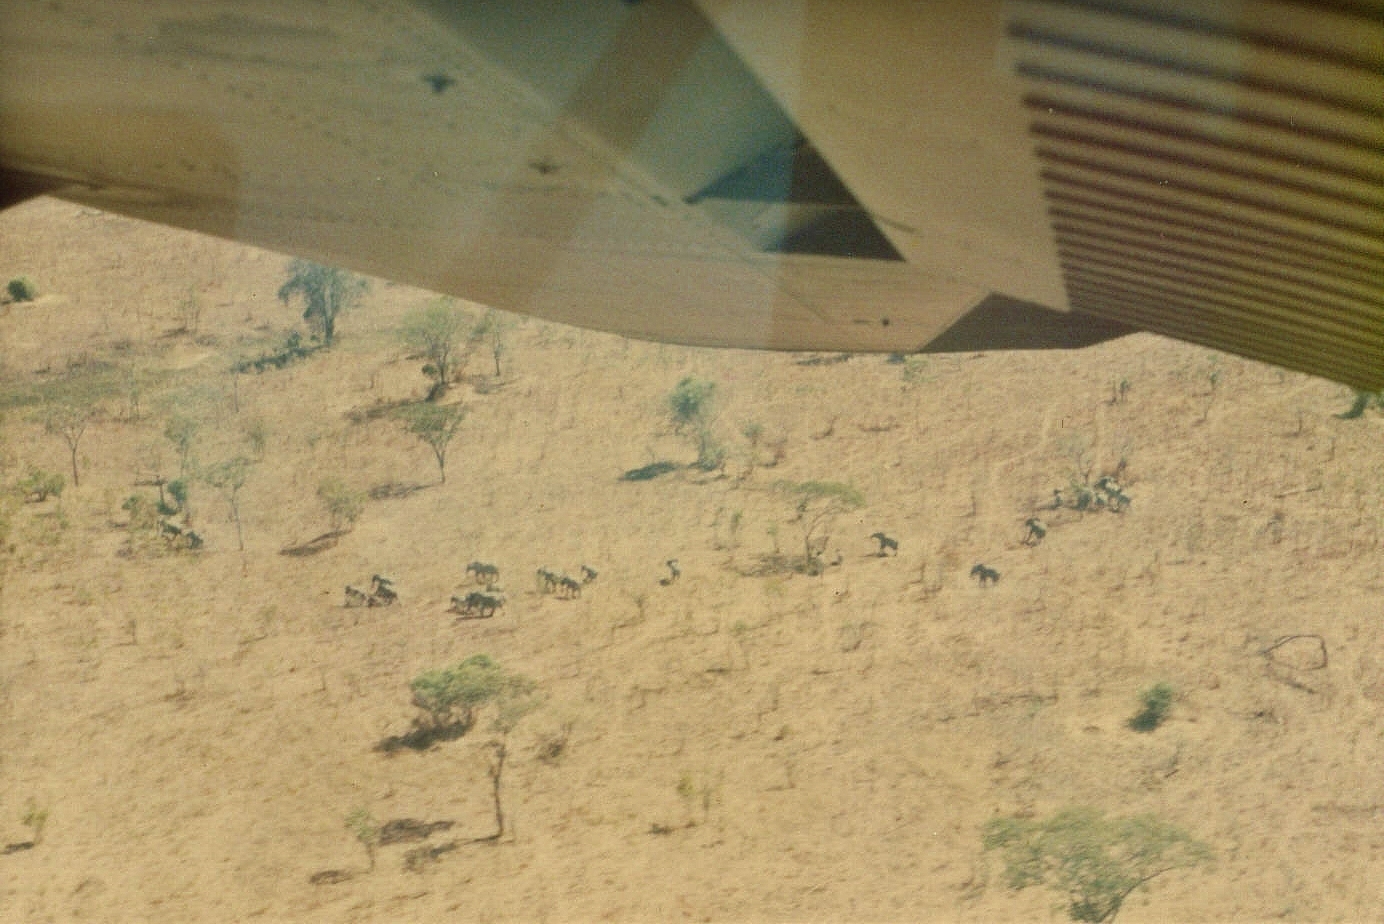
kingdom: Animalia
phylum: Chordata
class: Mammalia
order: Proboscidea
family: Elephantidae
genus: Loxodonta
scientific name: Loxodonta africana
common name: African elephant
